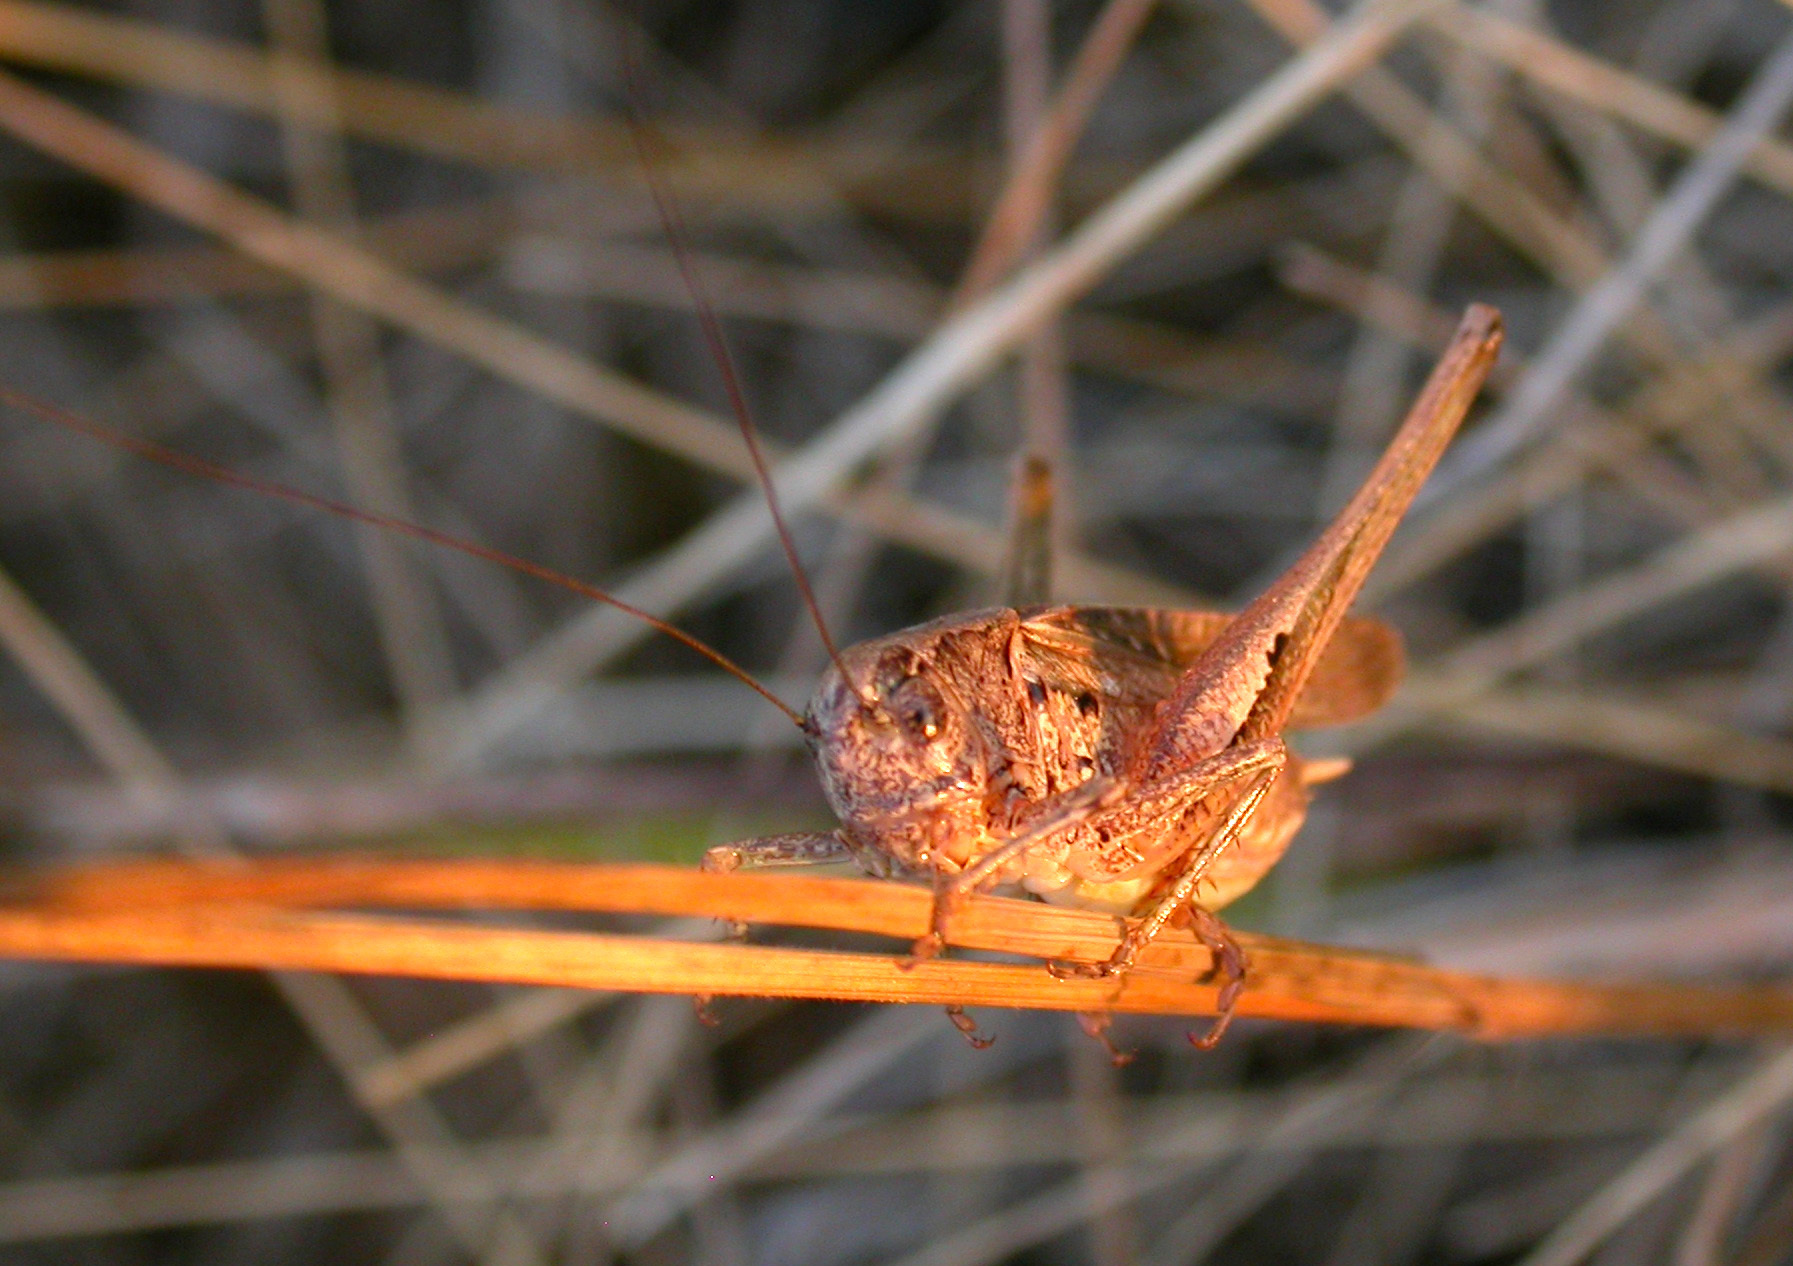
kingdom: Animalia
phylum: Arthropoda
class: Insecta
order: Orthoptera
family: Tettigoniidae
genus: Platycleis
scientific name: Platycleis albopunctata
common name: Grey bush-cricket
